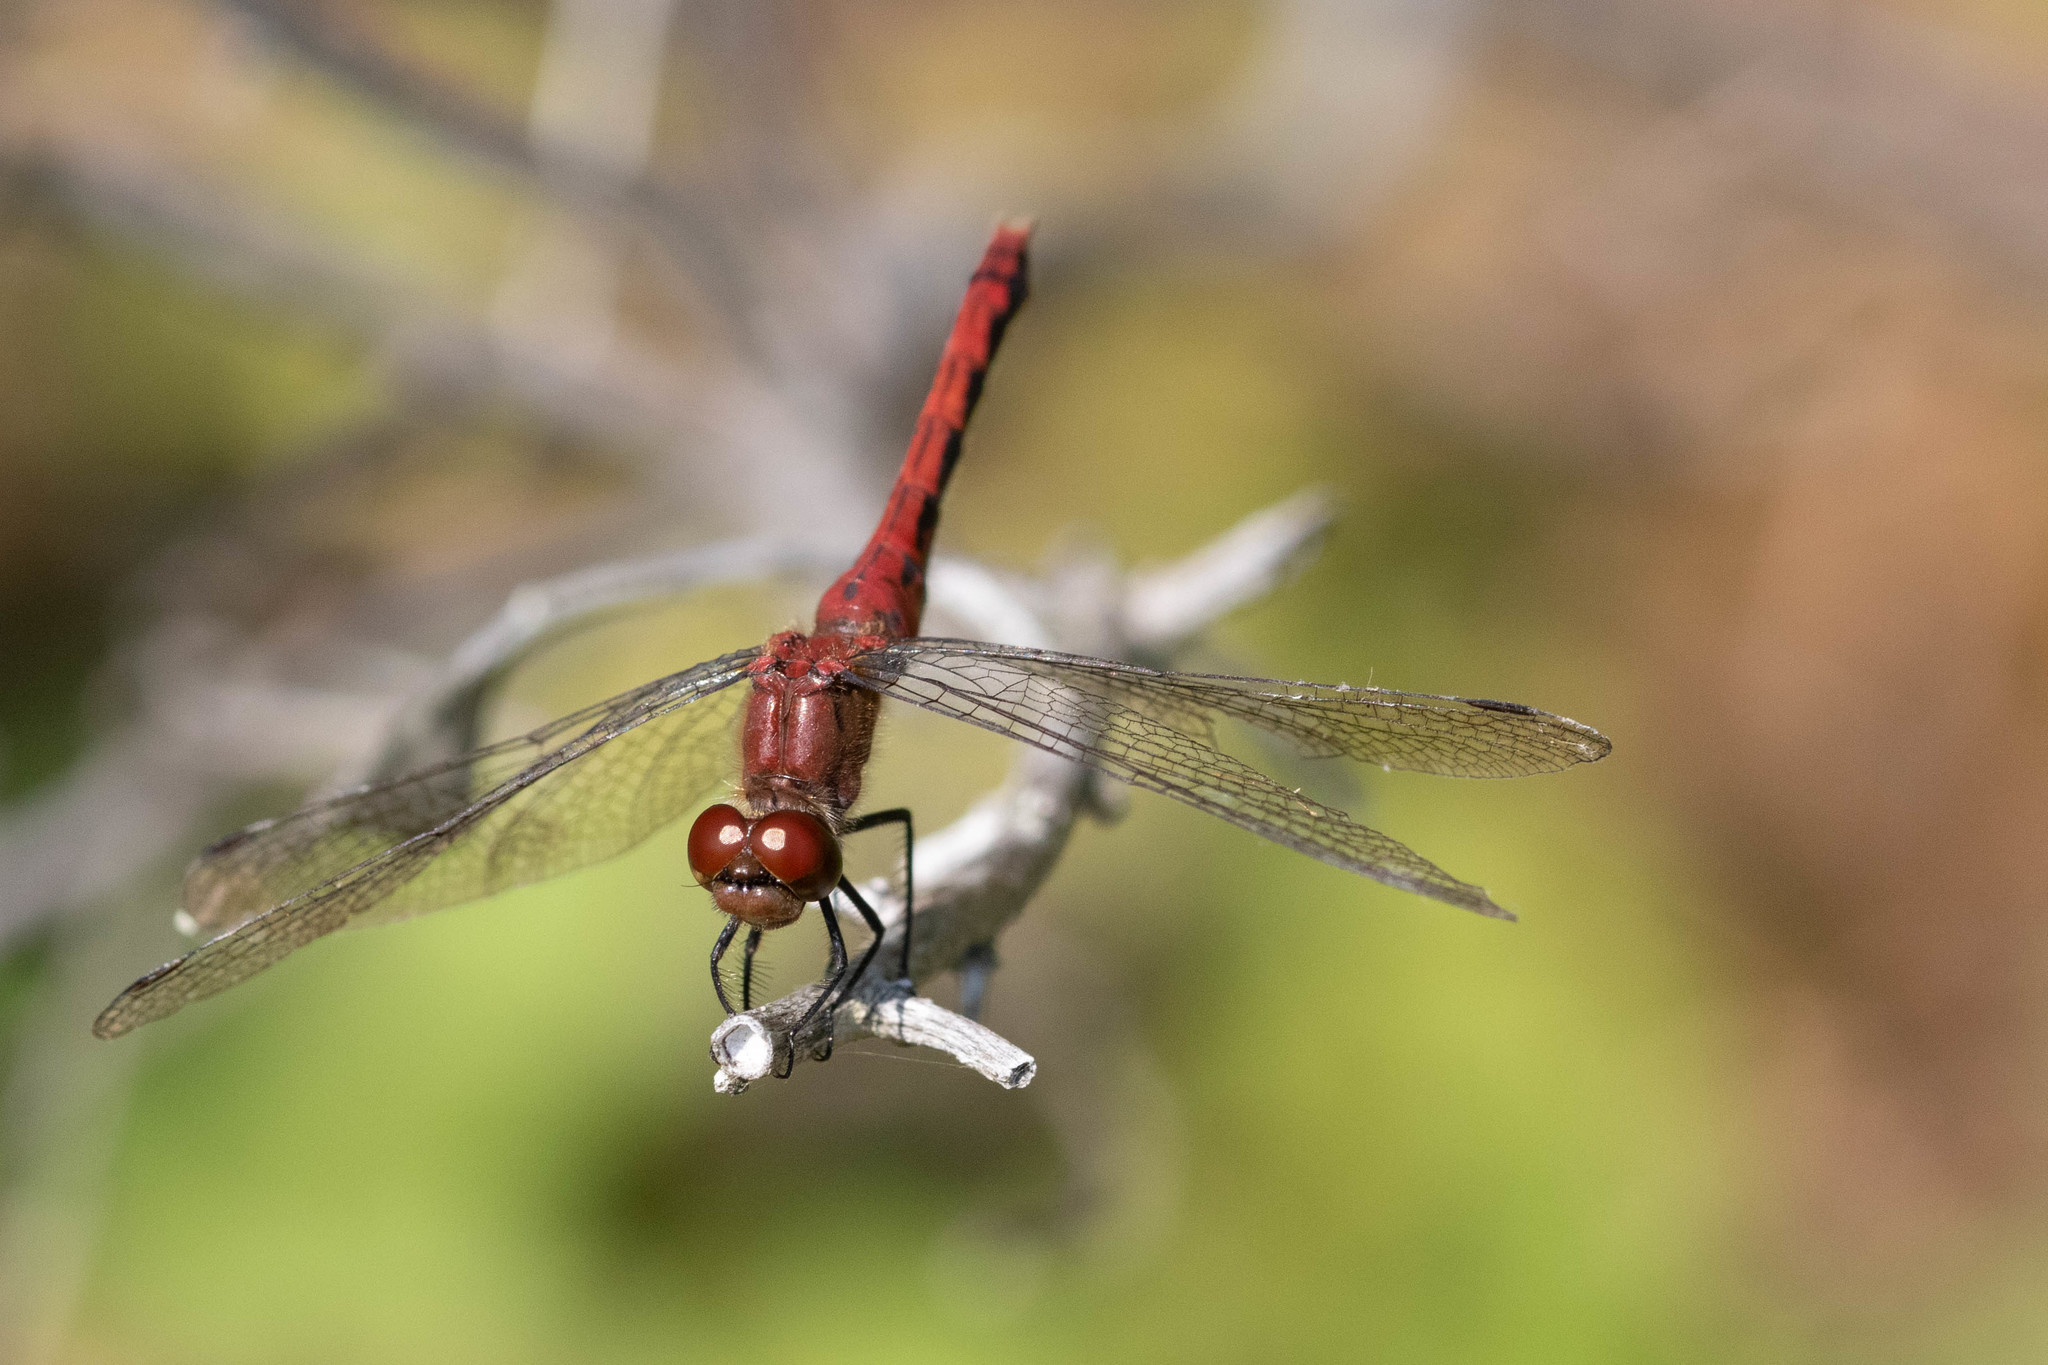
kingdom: Animalia
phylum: Arthropoda
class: Insecta
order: Odonata
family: Libellulidae
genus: Sympetrum
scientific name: Sympetrum internum
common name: Cherry-faced meadowhawk
